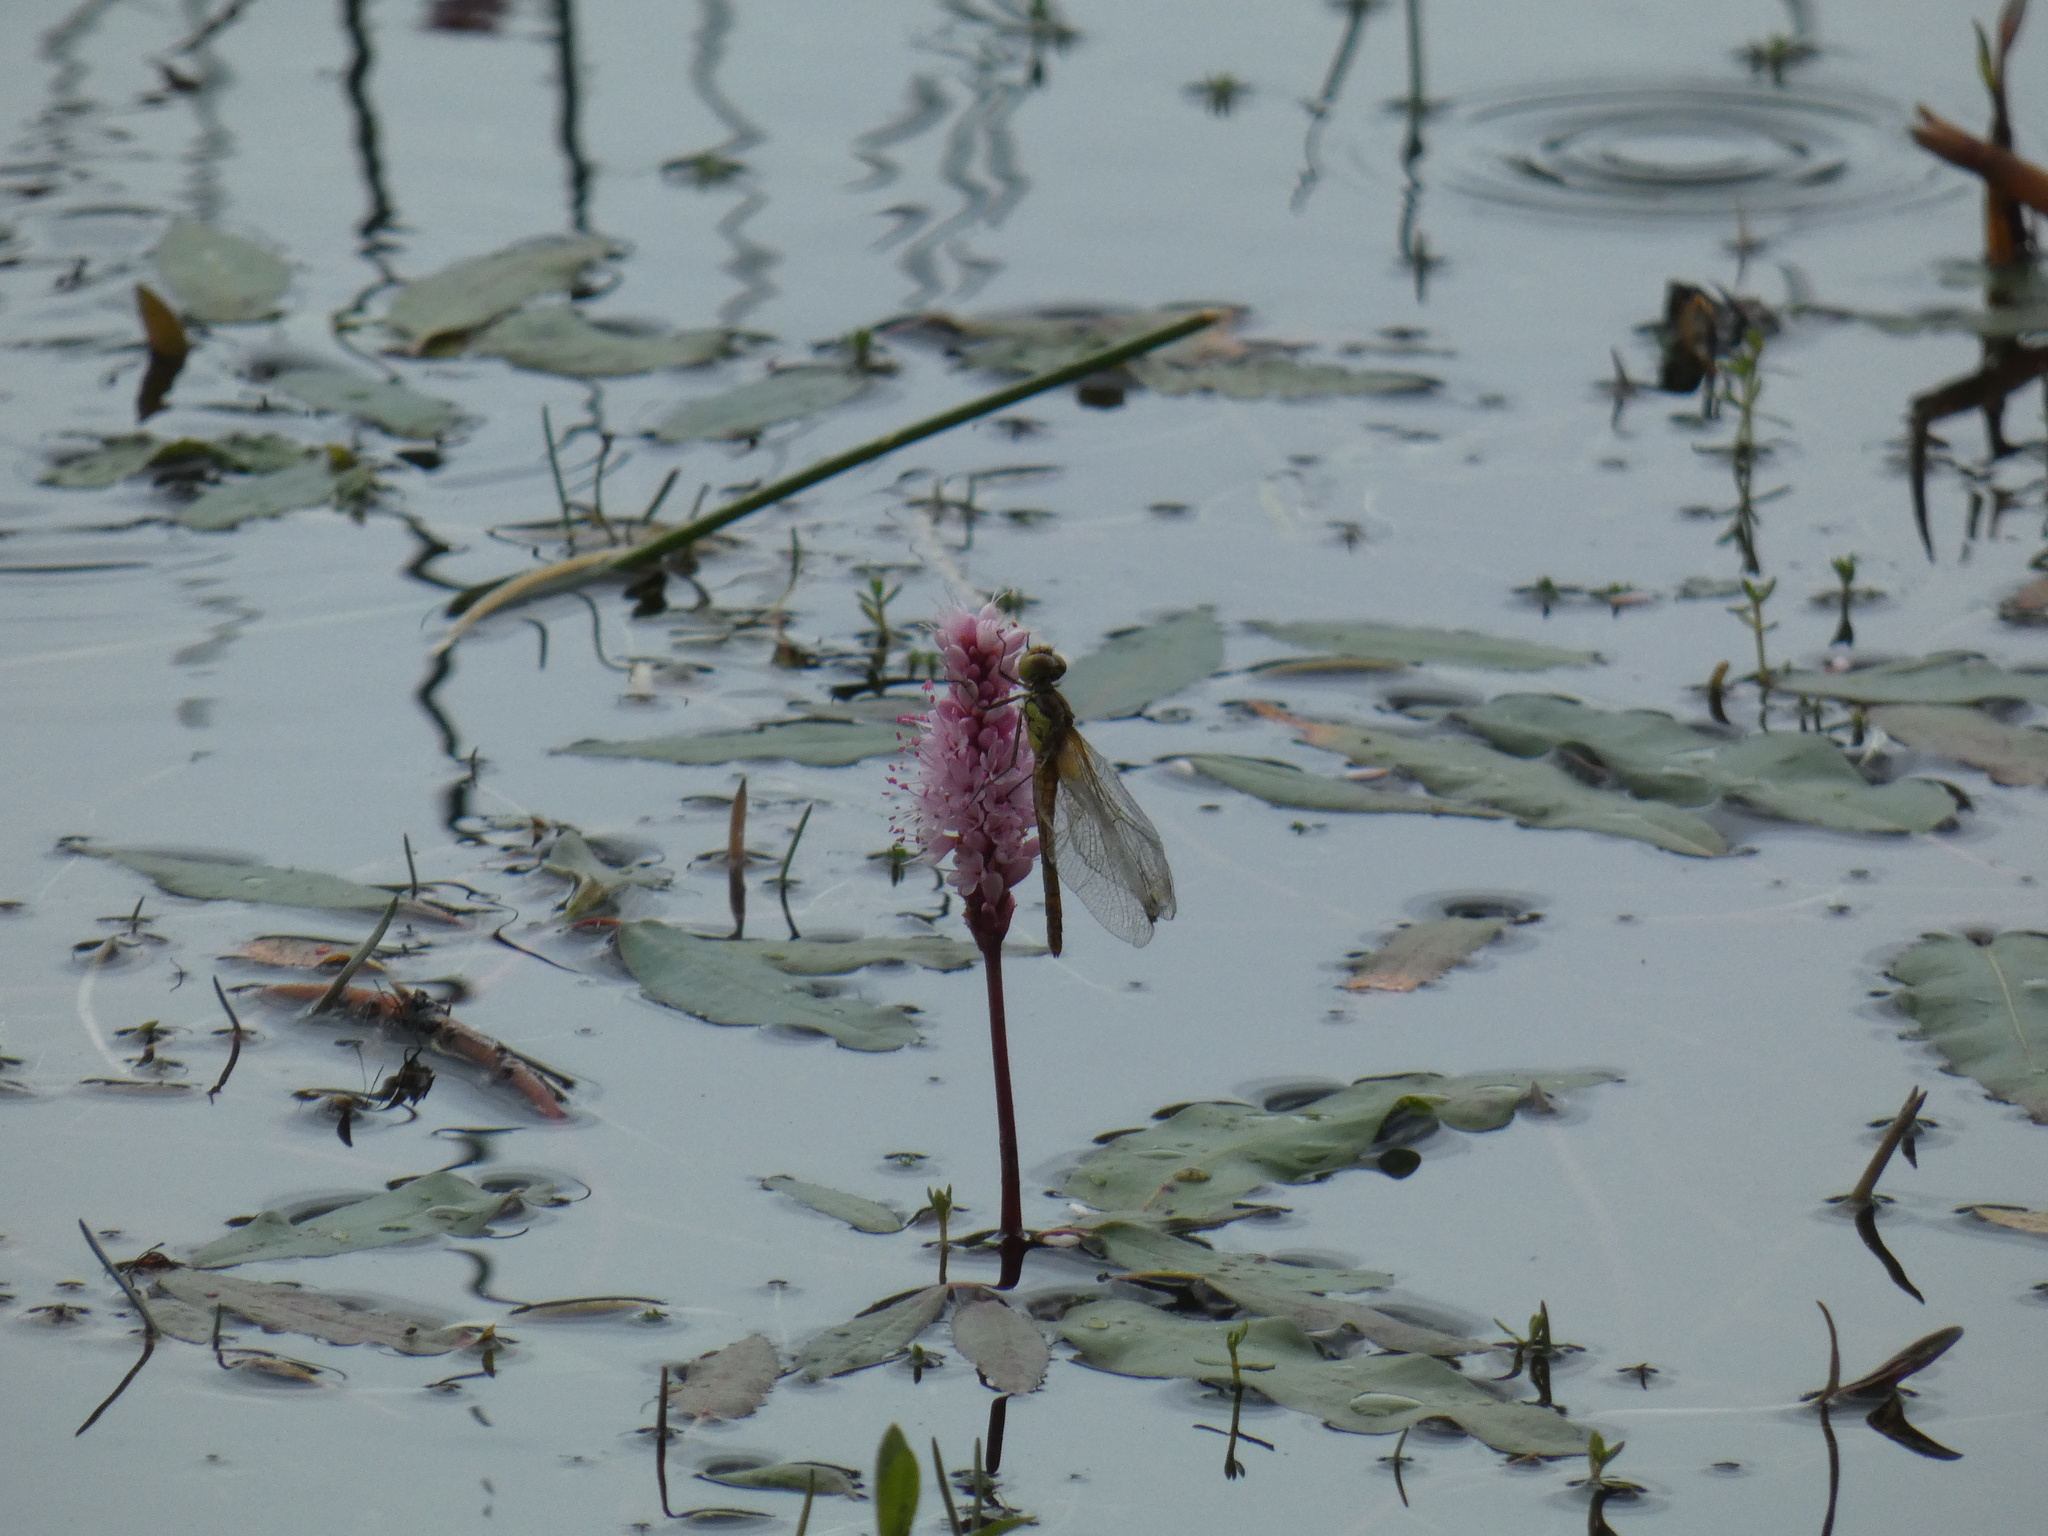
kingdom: Plantae
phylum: Tracheophyta
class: Magnoliopsida
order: Caryophyllales
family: Polygonaceae
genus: Persicaria
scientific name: Persicaria amphibia
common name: Amphibious bistort
